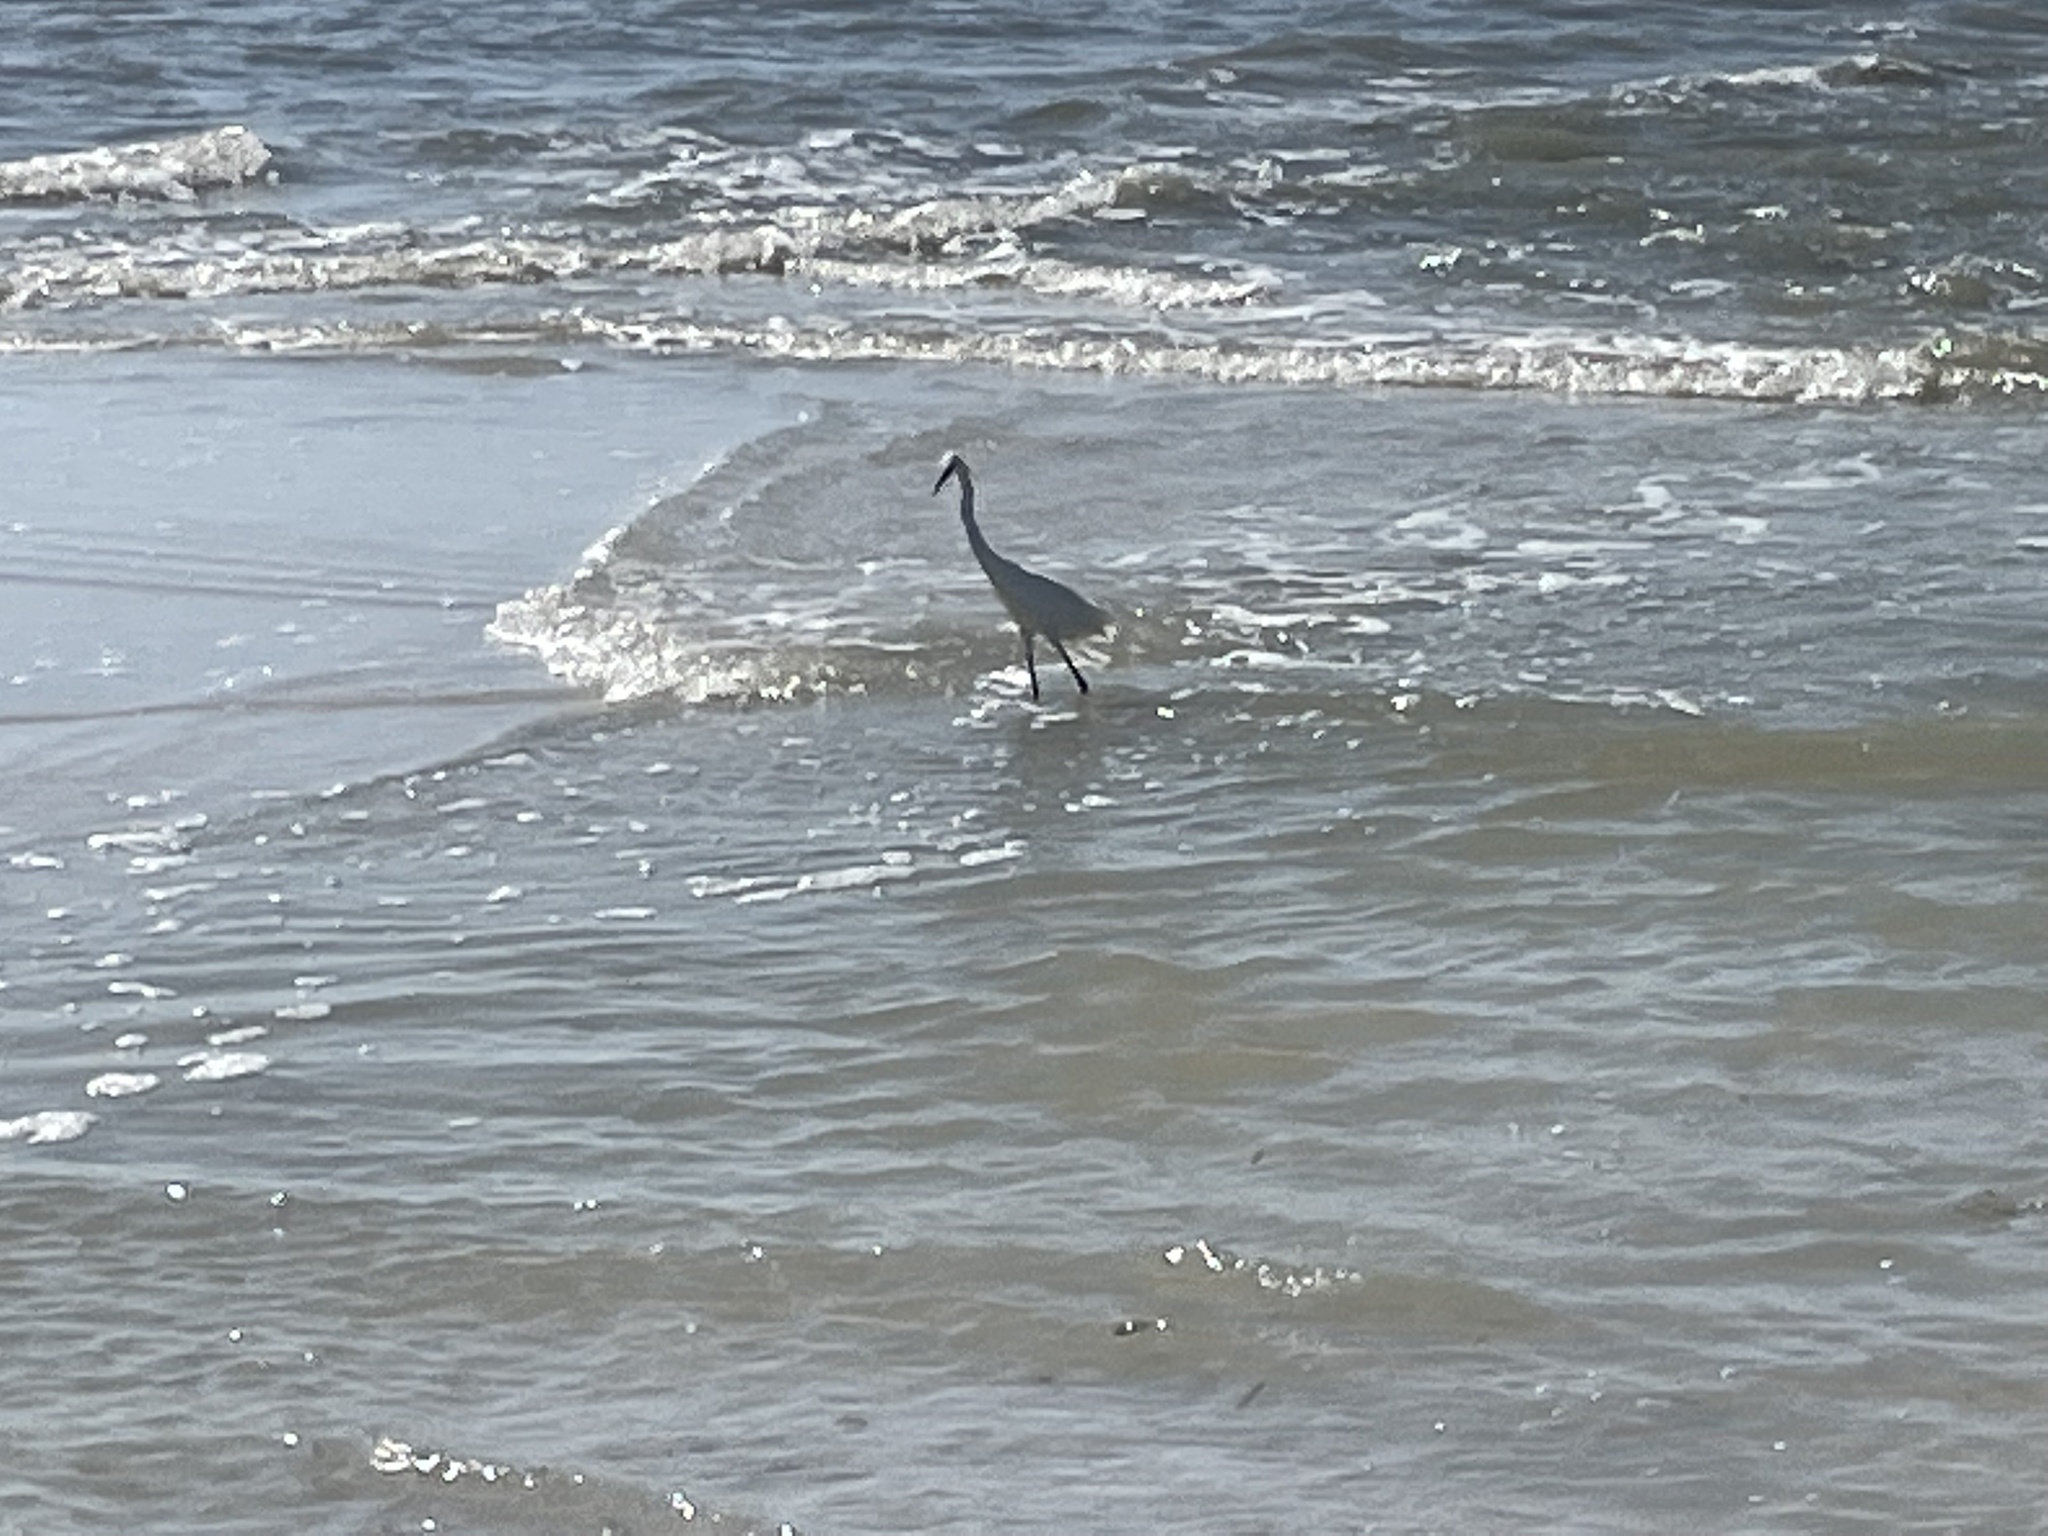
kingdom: Animalia
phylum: Chordata
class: Aves
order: Pelecaniformes
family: Ardeidae
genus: Egretta
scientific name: Egretta thula
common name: Snowy egret
